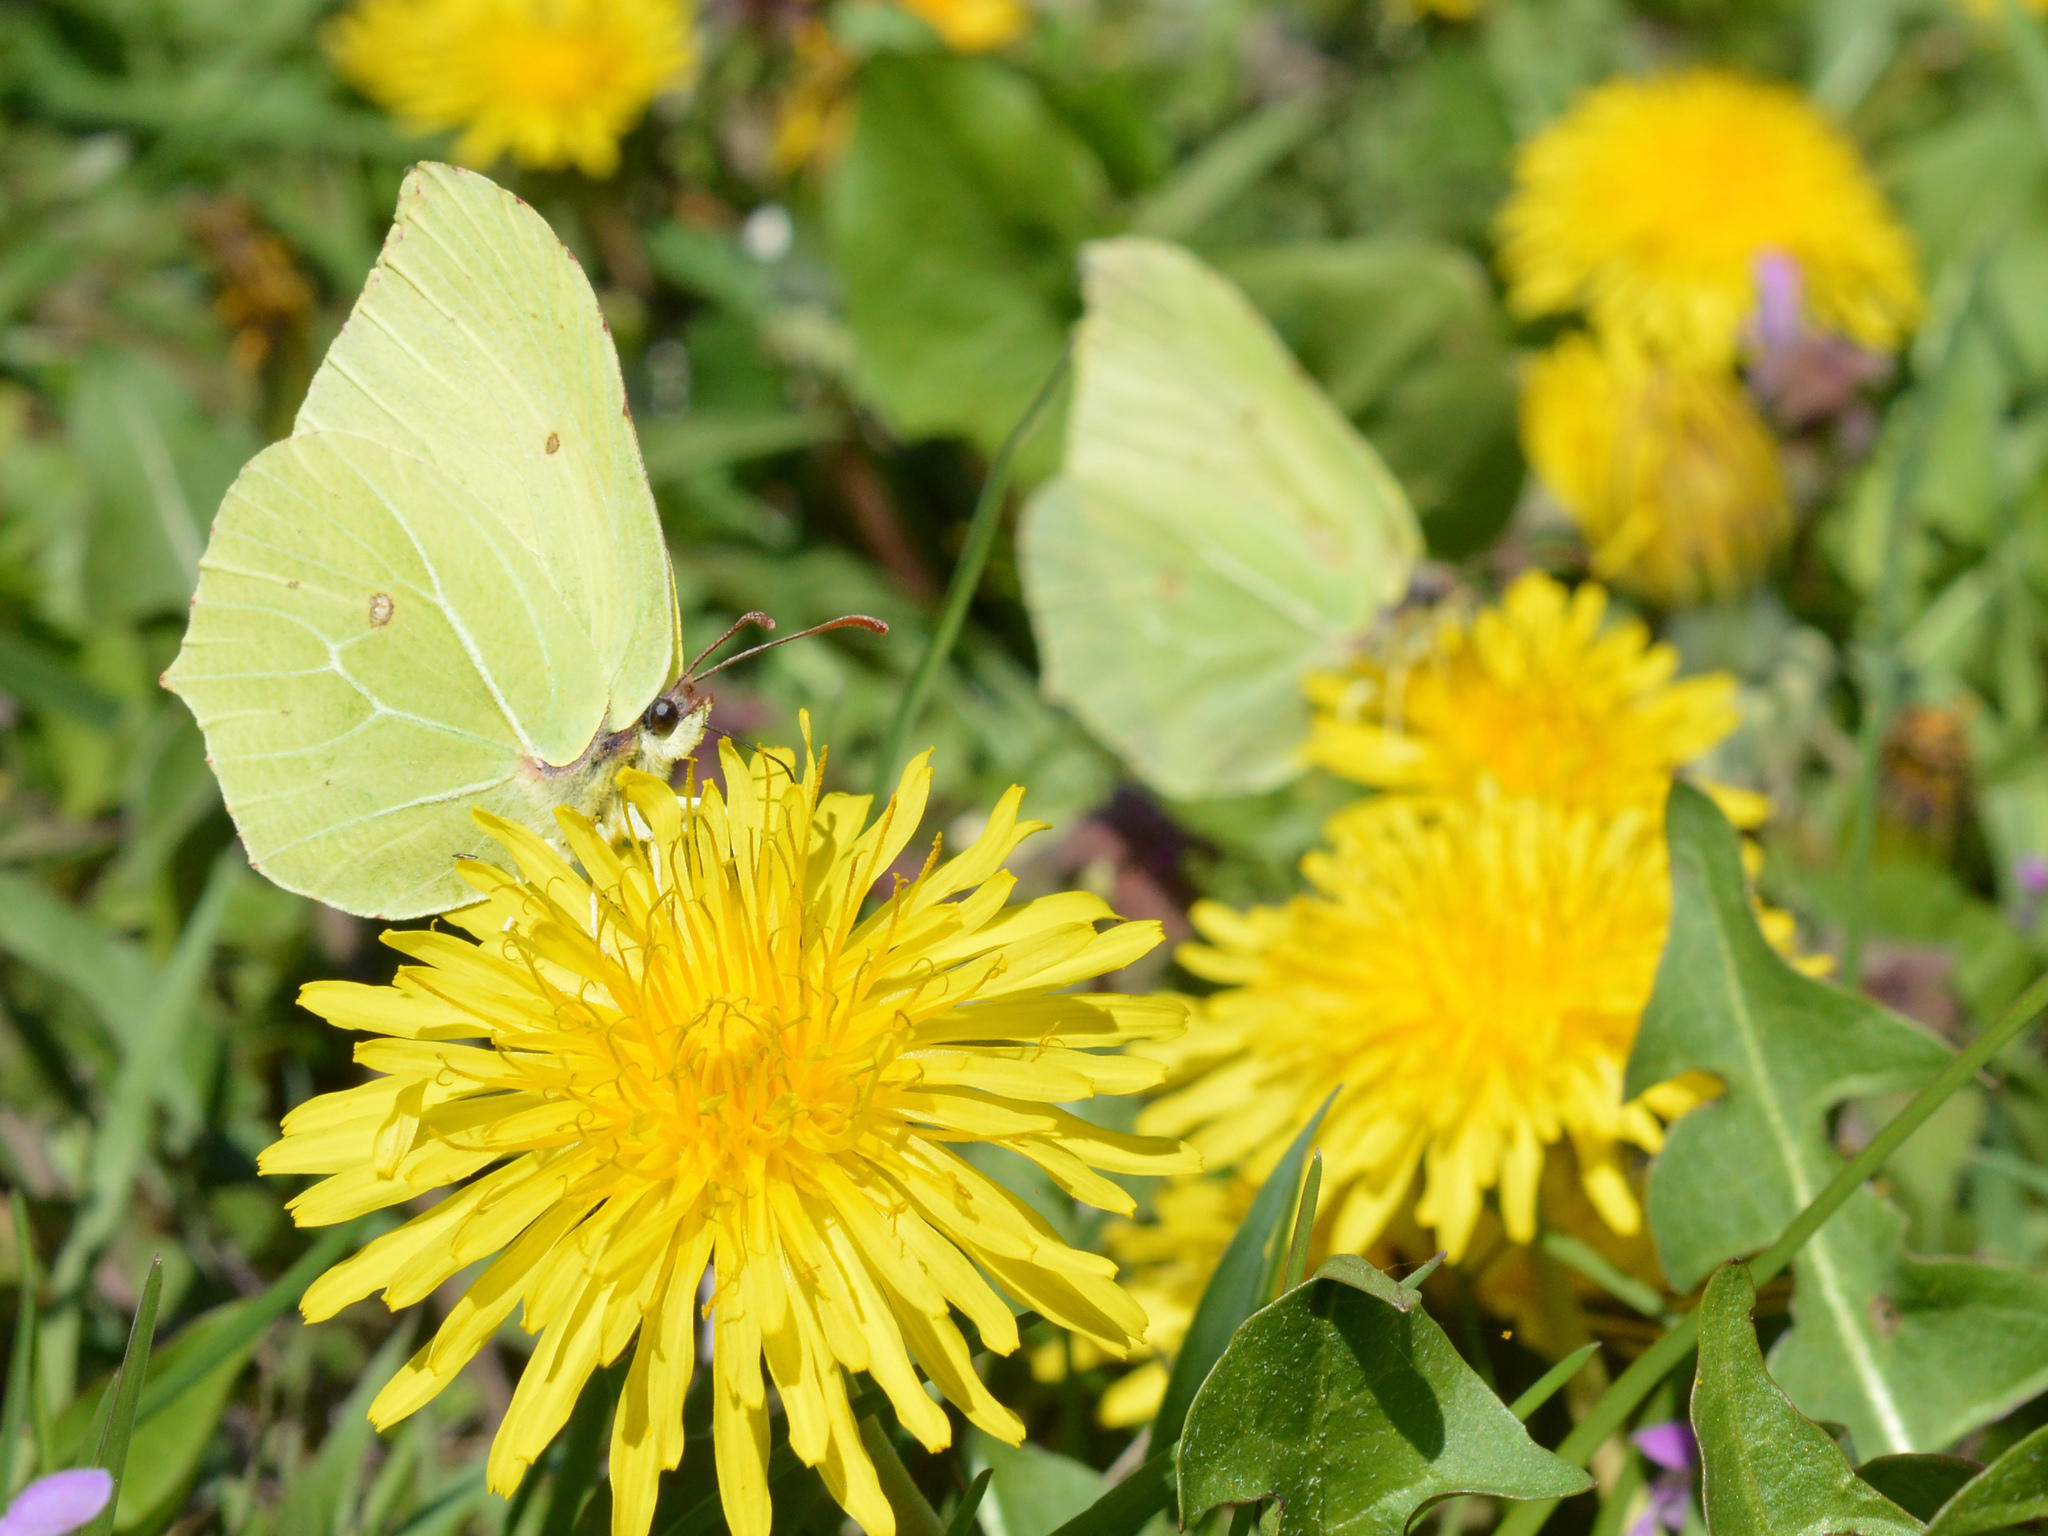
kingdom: Animalia
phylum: Arthropoda
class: Insecta
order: Lepidoptera
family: Pieridae
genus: Gonepteryx
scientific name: Gonepteryx rhamni
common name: Brimstone
